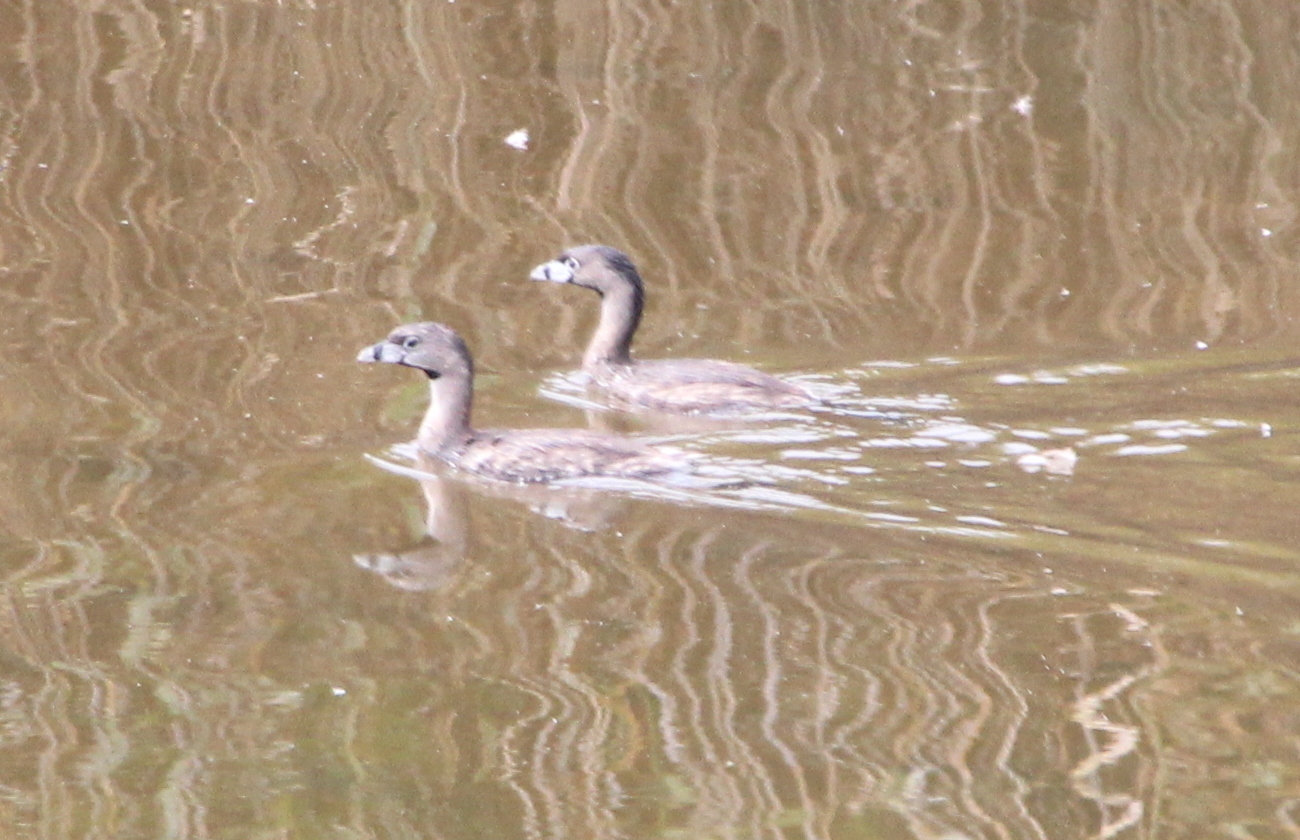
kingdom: Animalia
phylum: Chordata
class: Aves
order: Podicipediformes
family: Podicipedidae
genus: Podilymbus
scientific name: Podilymbus podiceps
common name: Pied-billed grebe
